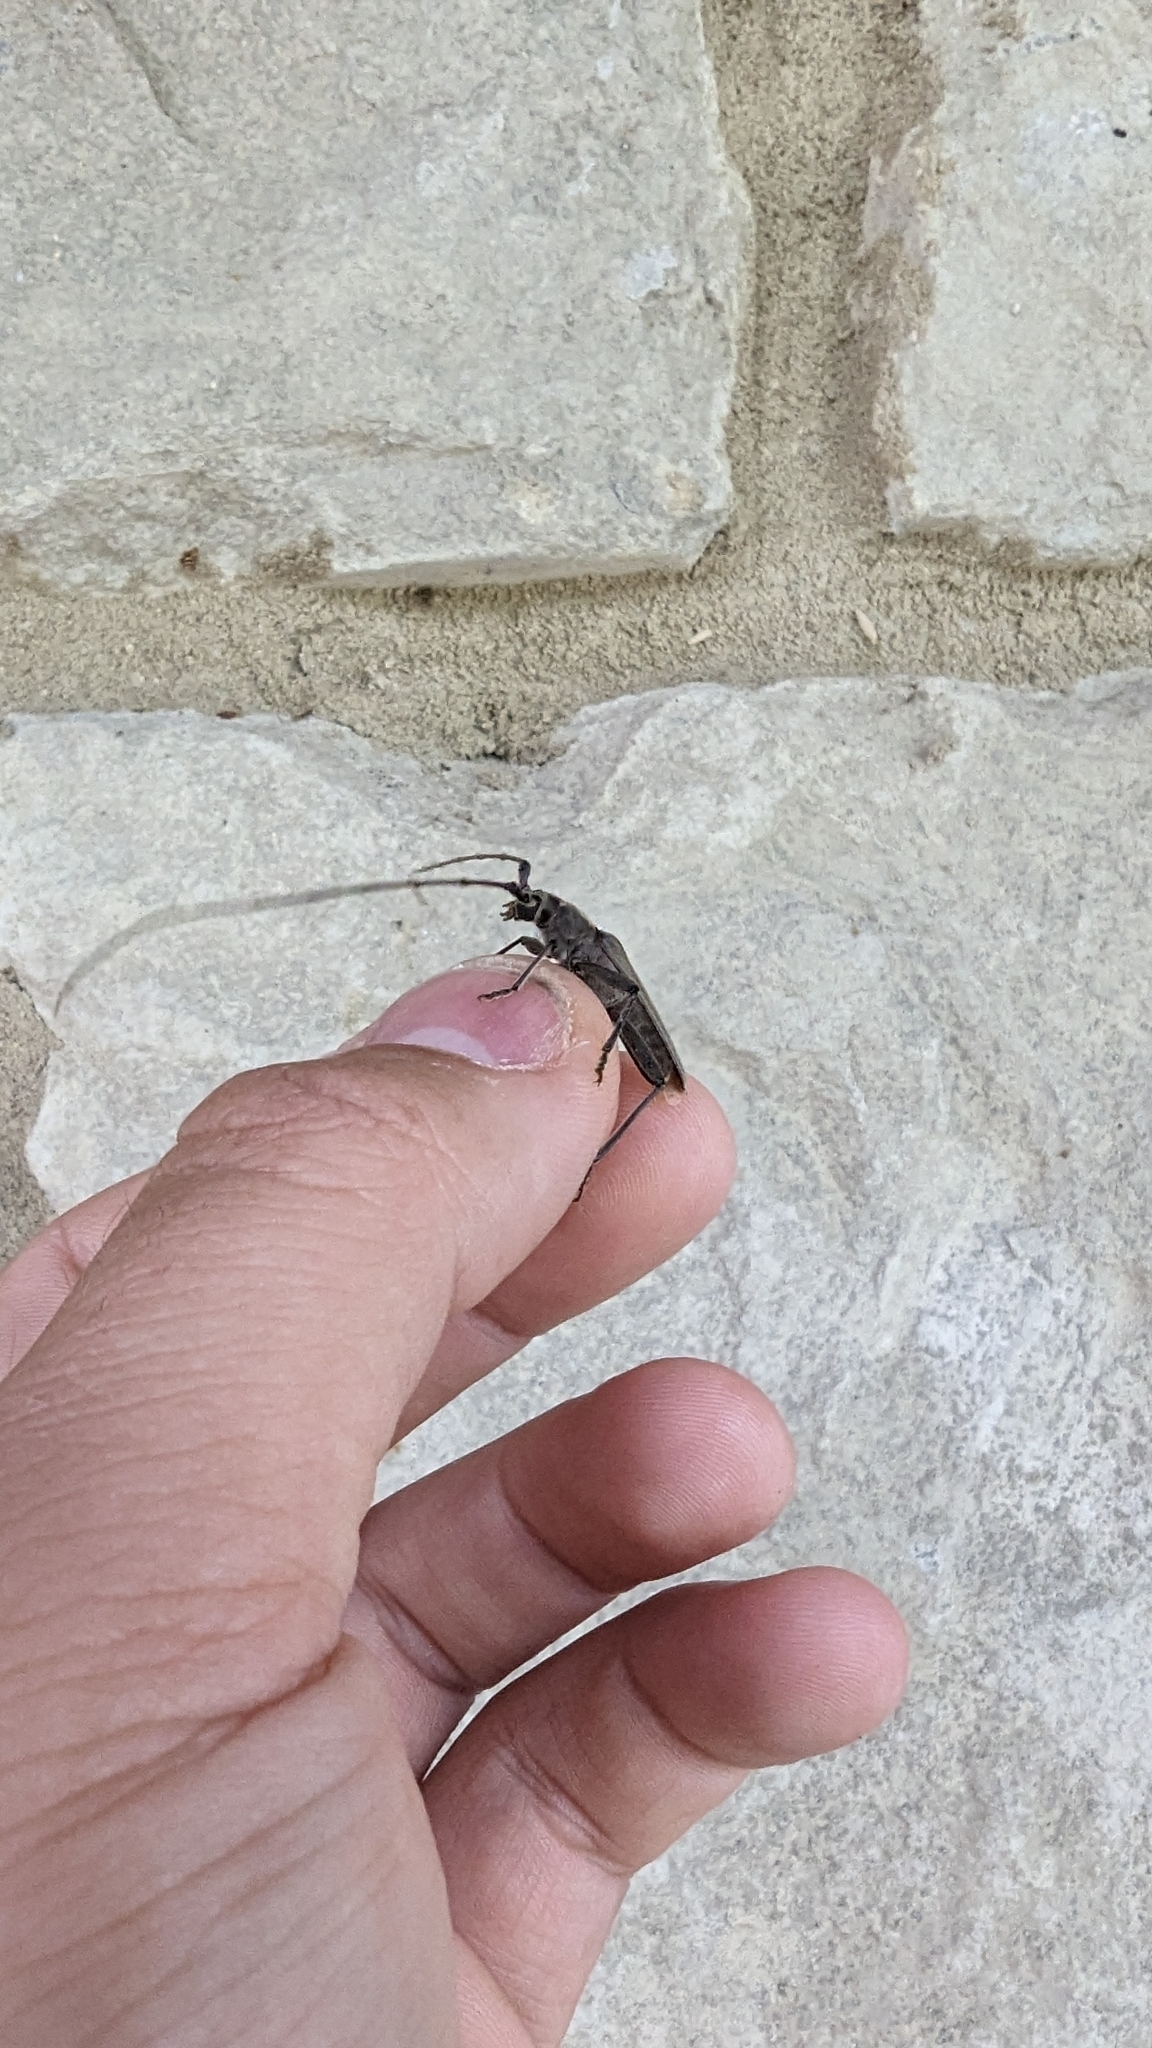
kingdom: Animalia
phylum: Arthropoda
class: Insecta
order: Coleoptera
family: Cerambycidae
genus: Knulliana
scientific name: Knulliana cincta
